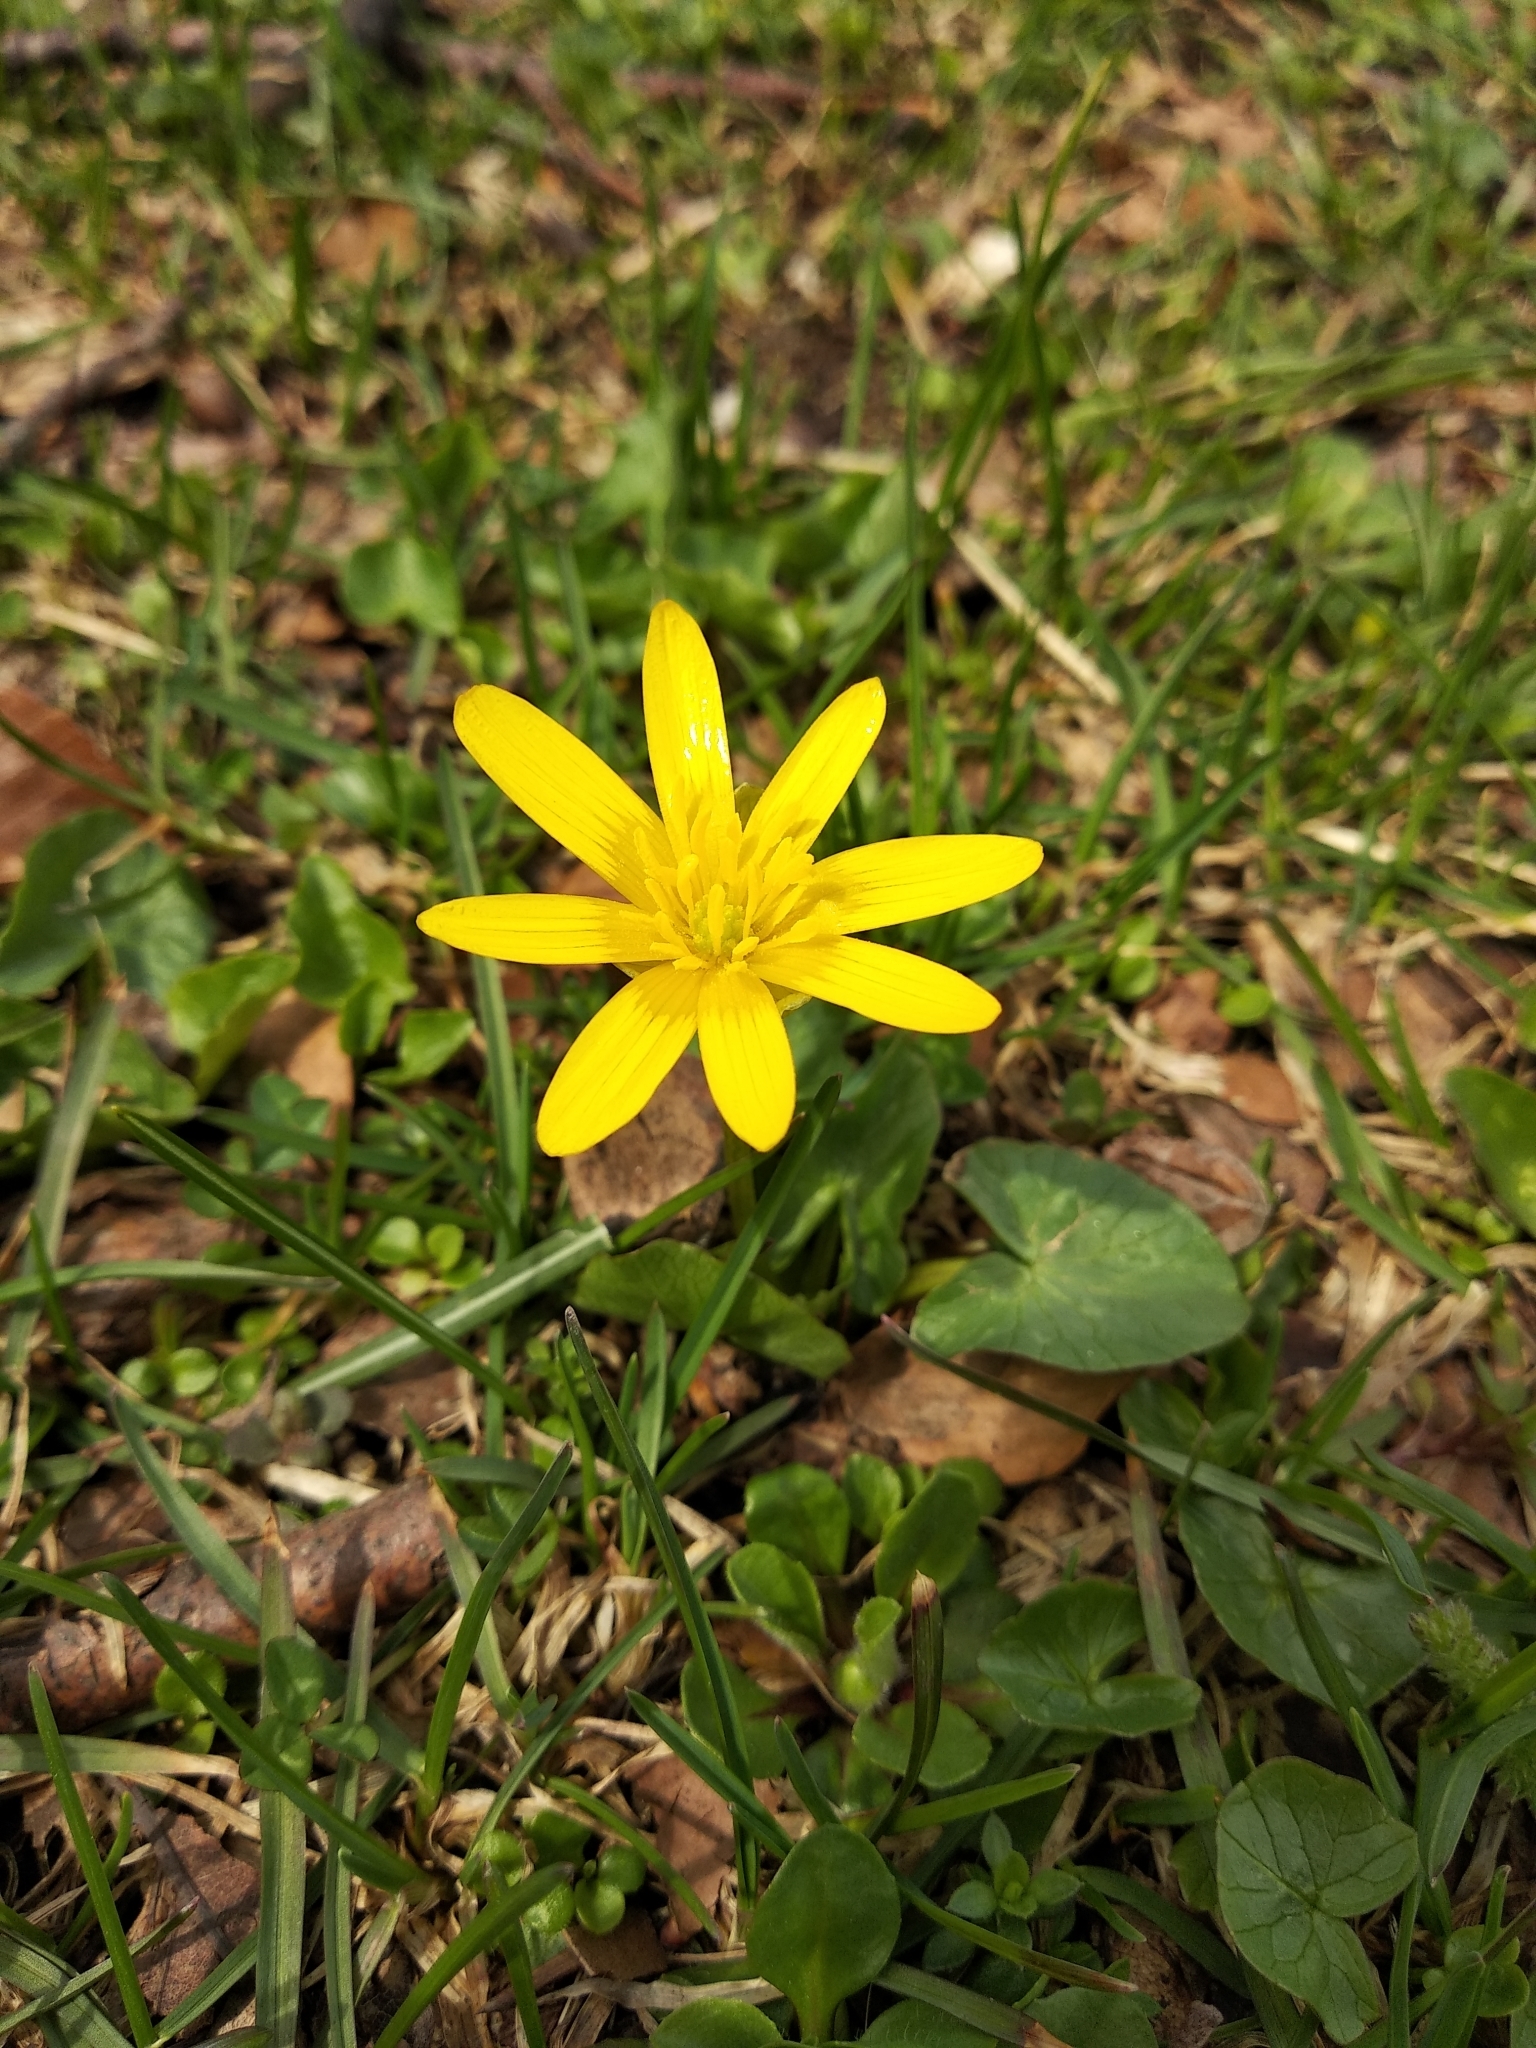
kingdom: Plantae
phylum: Tracheophyta
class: Magnoliopsida
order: Ranunculales
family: Ranunculaceae
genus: Ficaria
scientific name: Ficaria verna
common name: Lesser celandine
